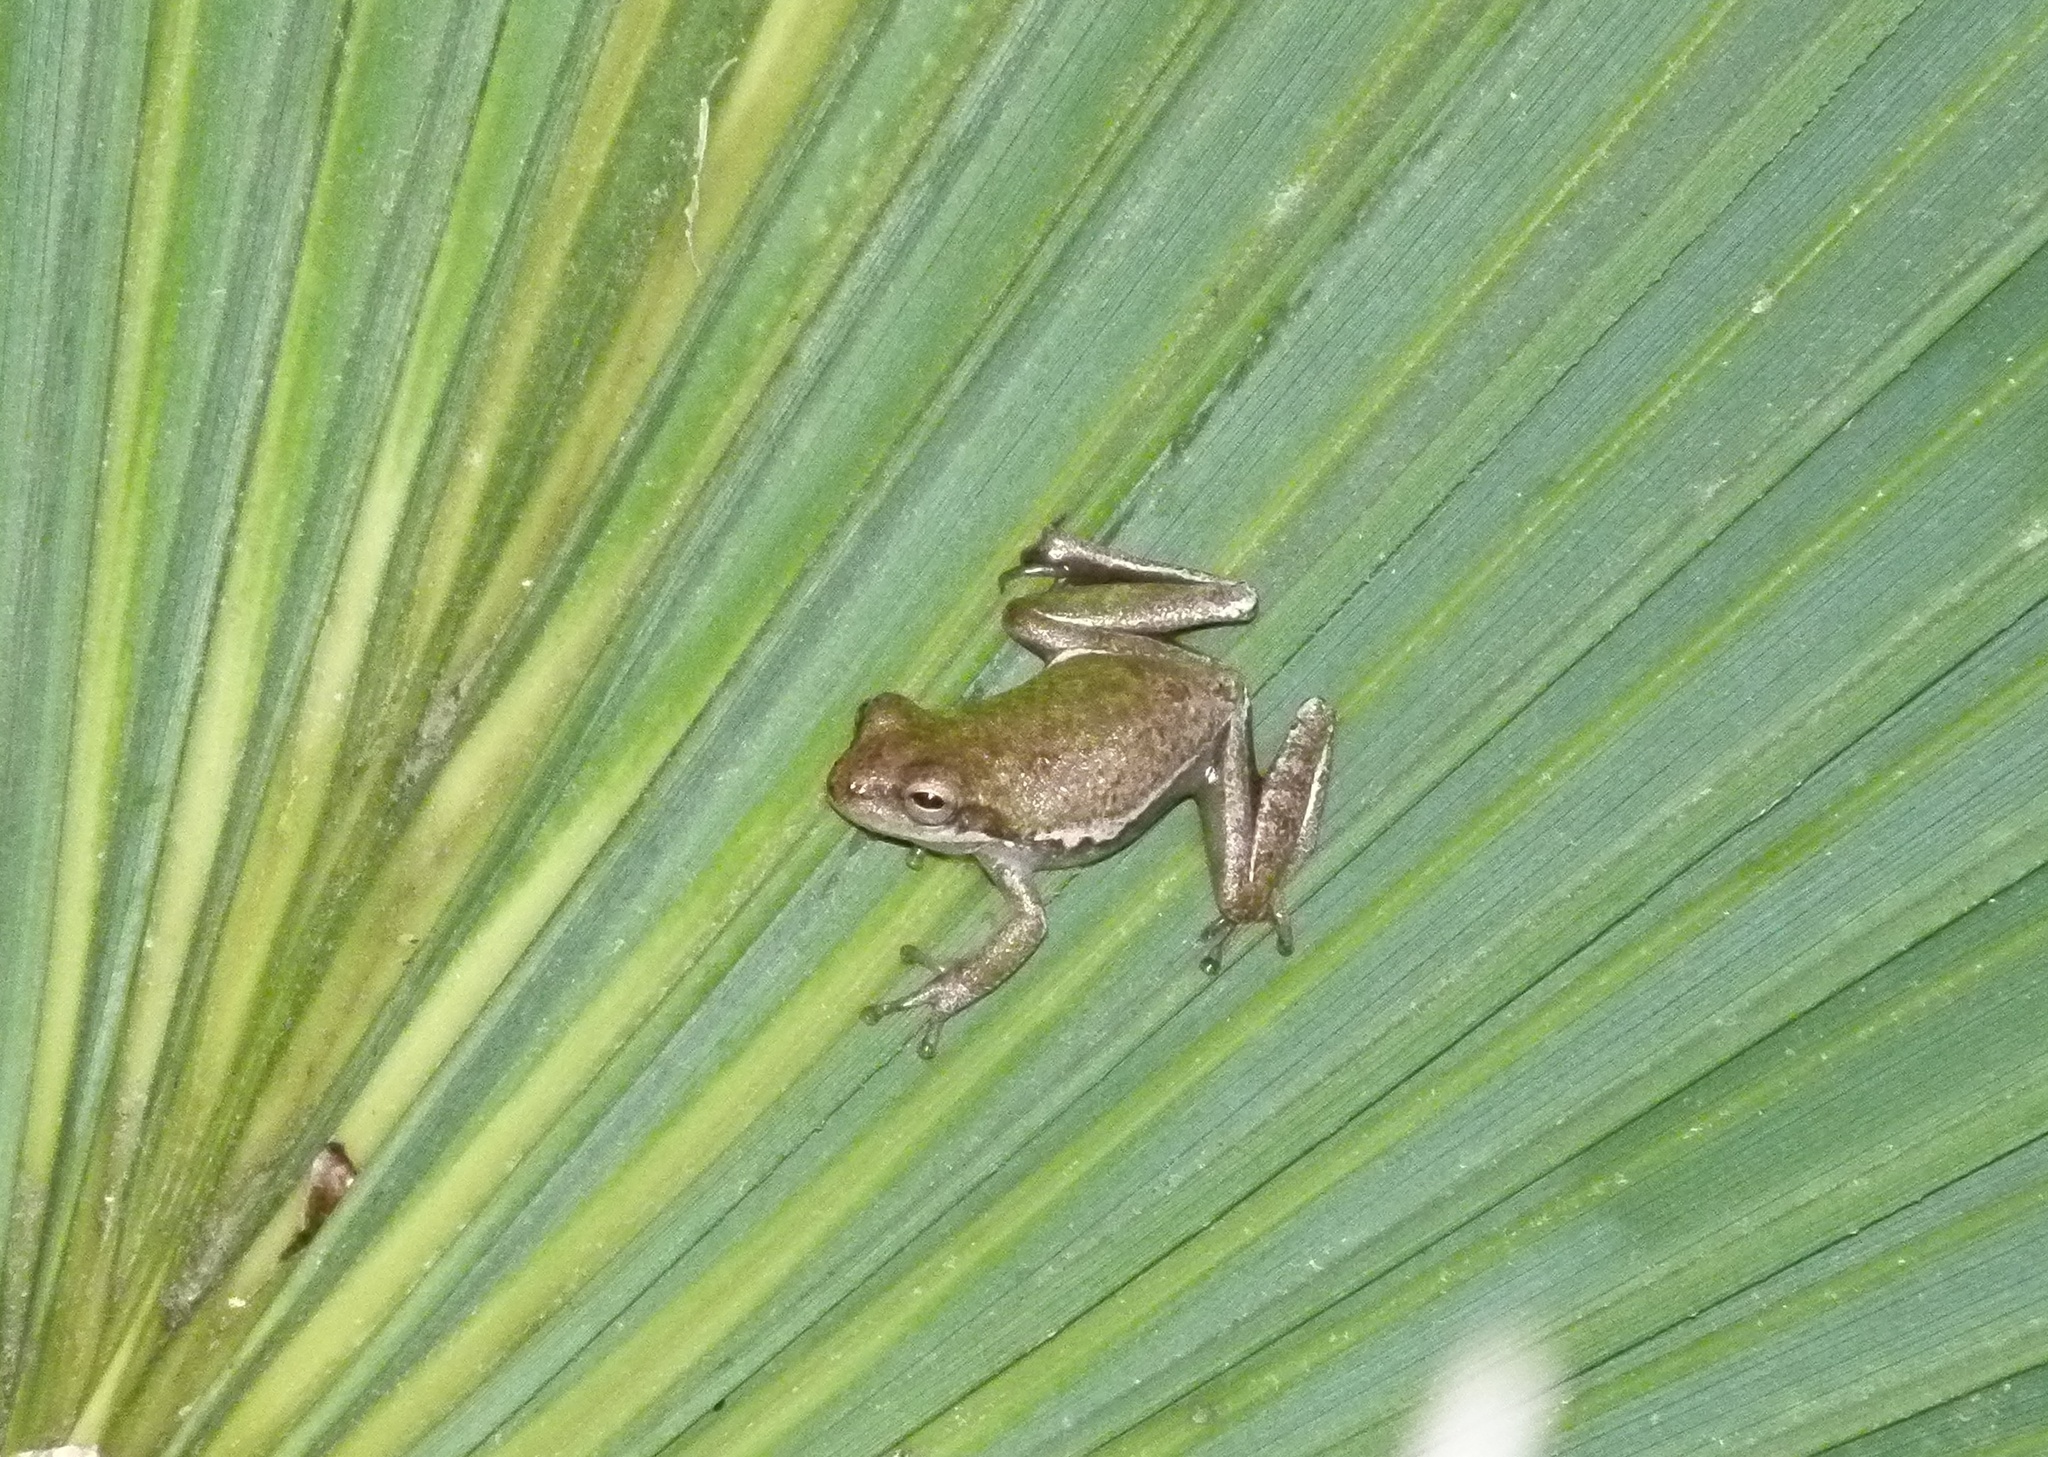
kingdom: Animalia
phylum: Chordata
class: Amphibia
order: Anura
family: Hylidae
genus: Dryophytes
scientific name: Dryophytes squirellus
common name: Squirrel treefrog
